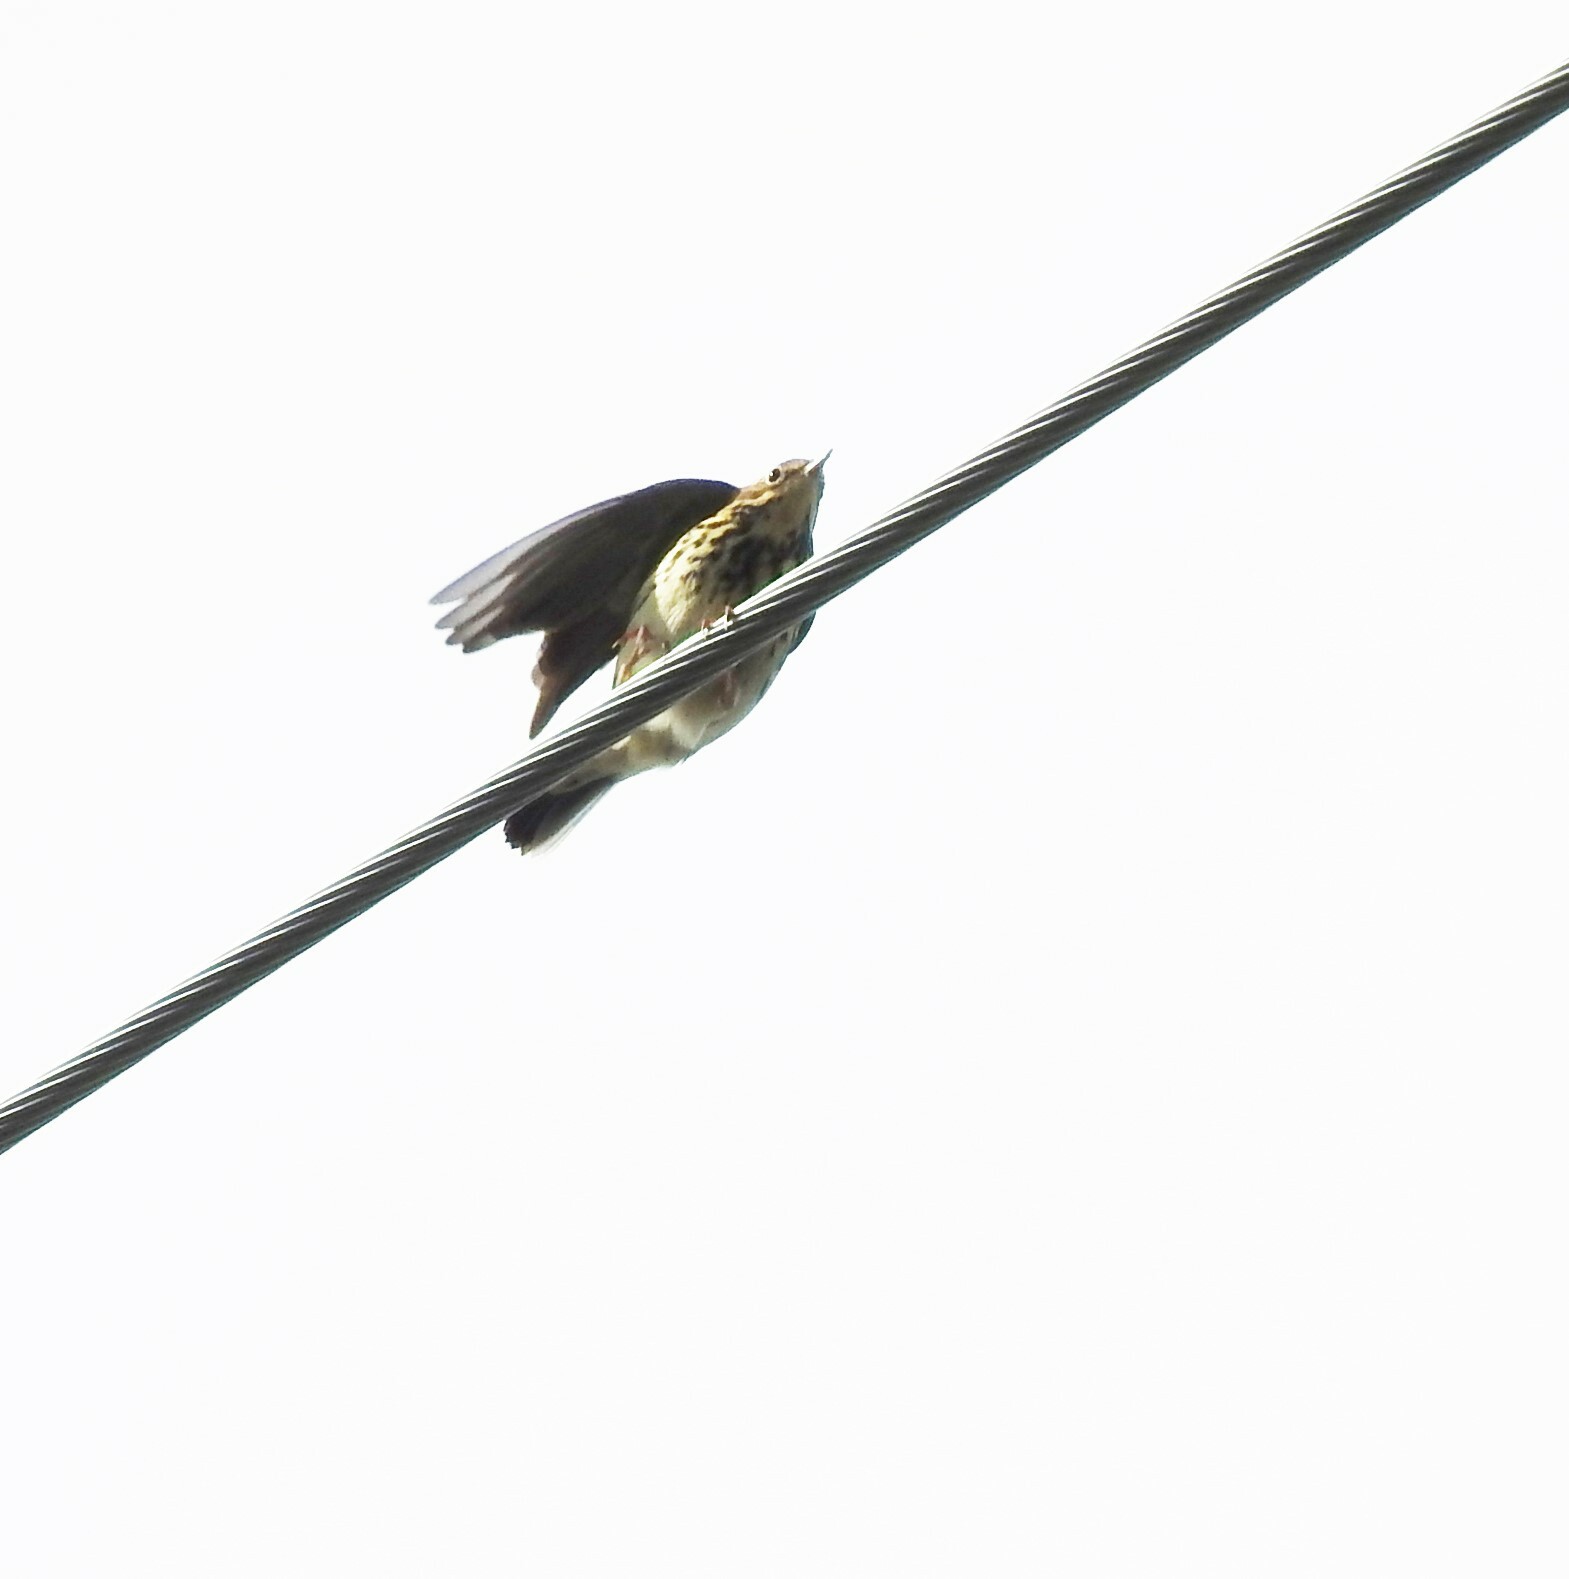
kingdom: Animalia
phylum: Chordata
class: Aves
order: Passeriformes
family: Motacillidae
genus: Anthus
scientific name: Anthus trivialis
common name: Tree pipit
